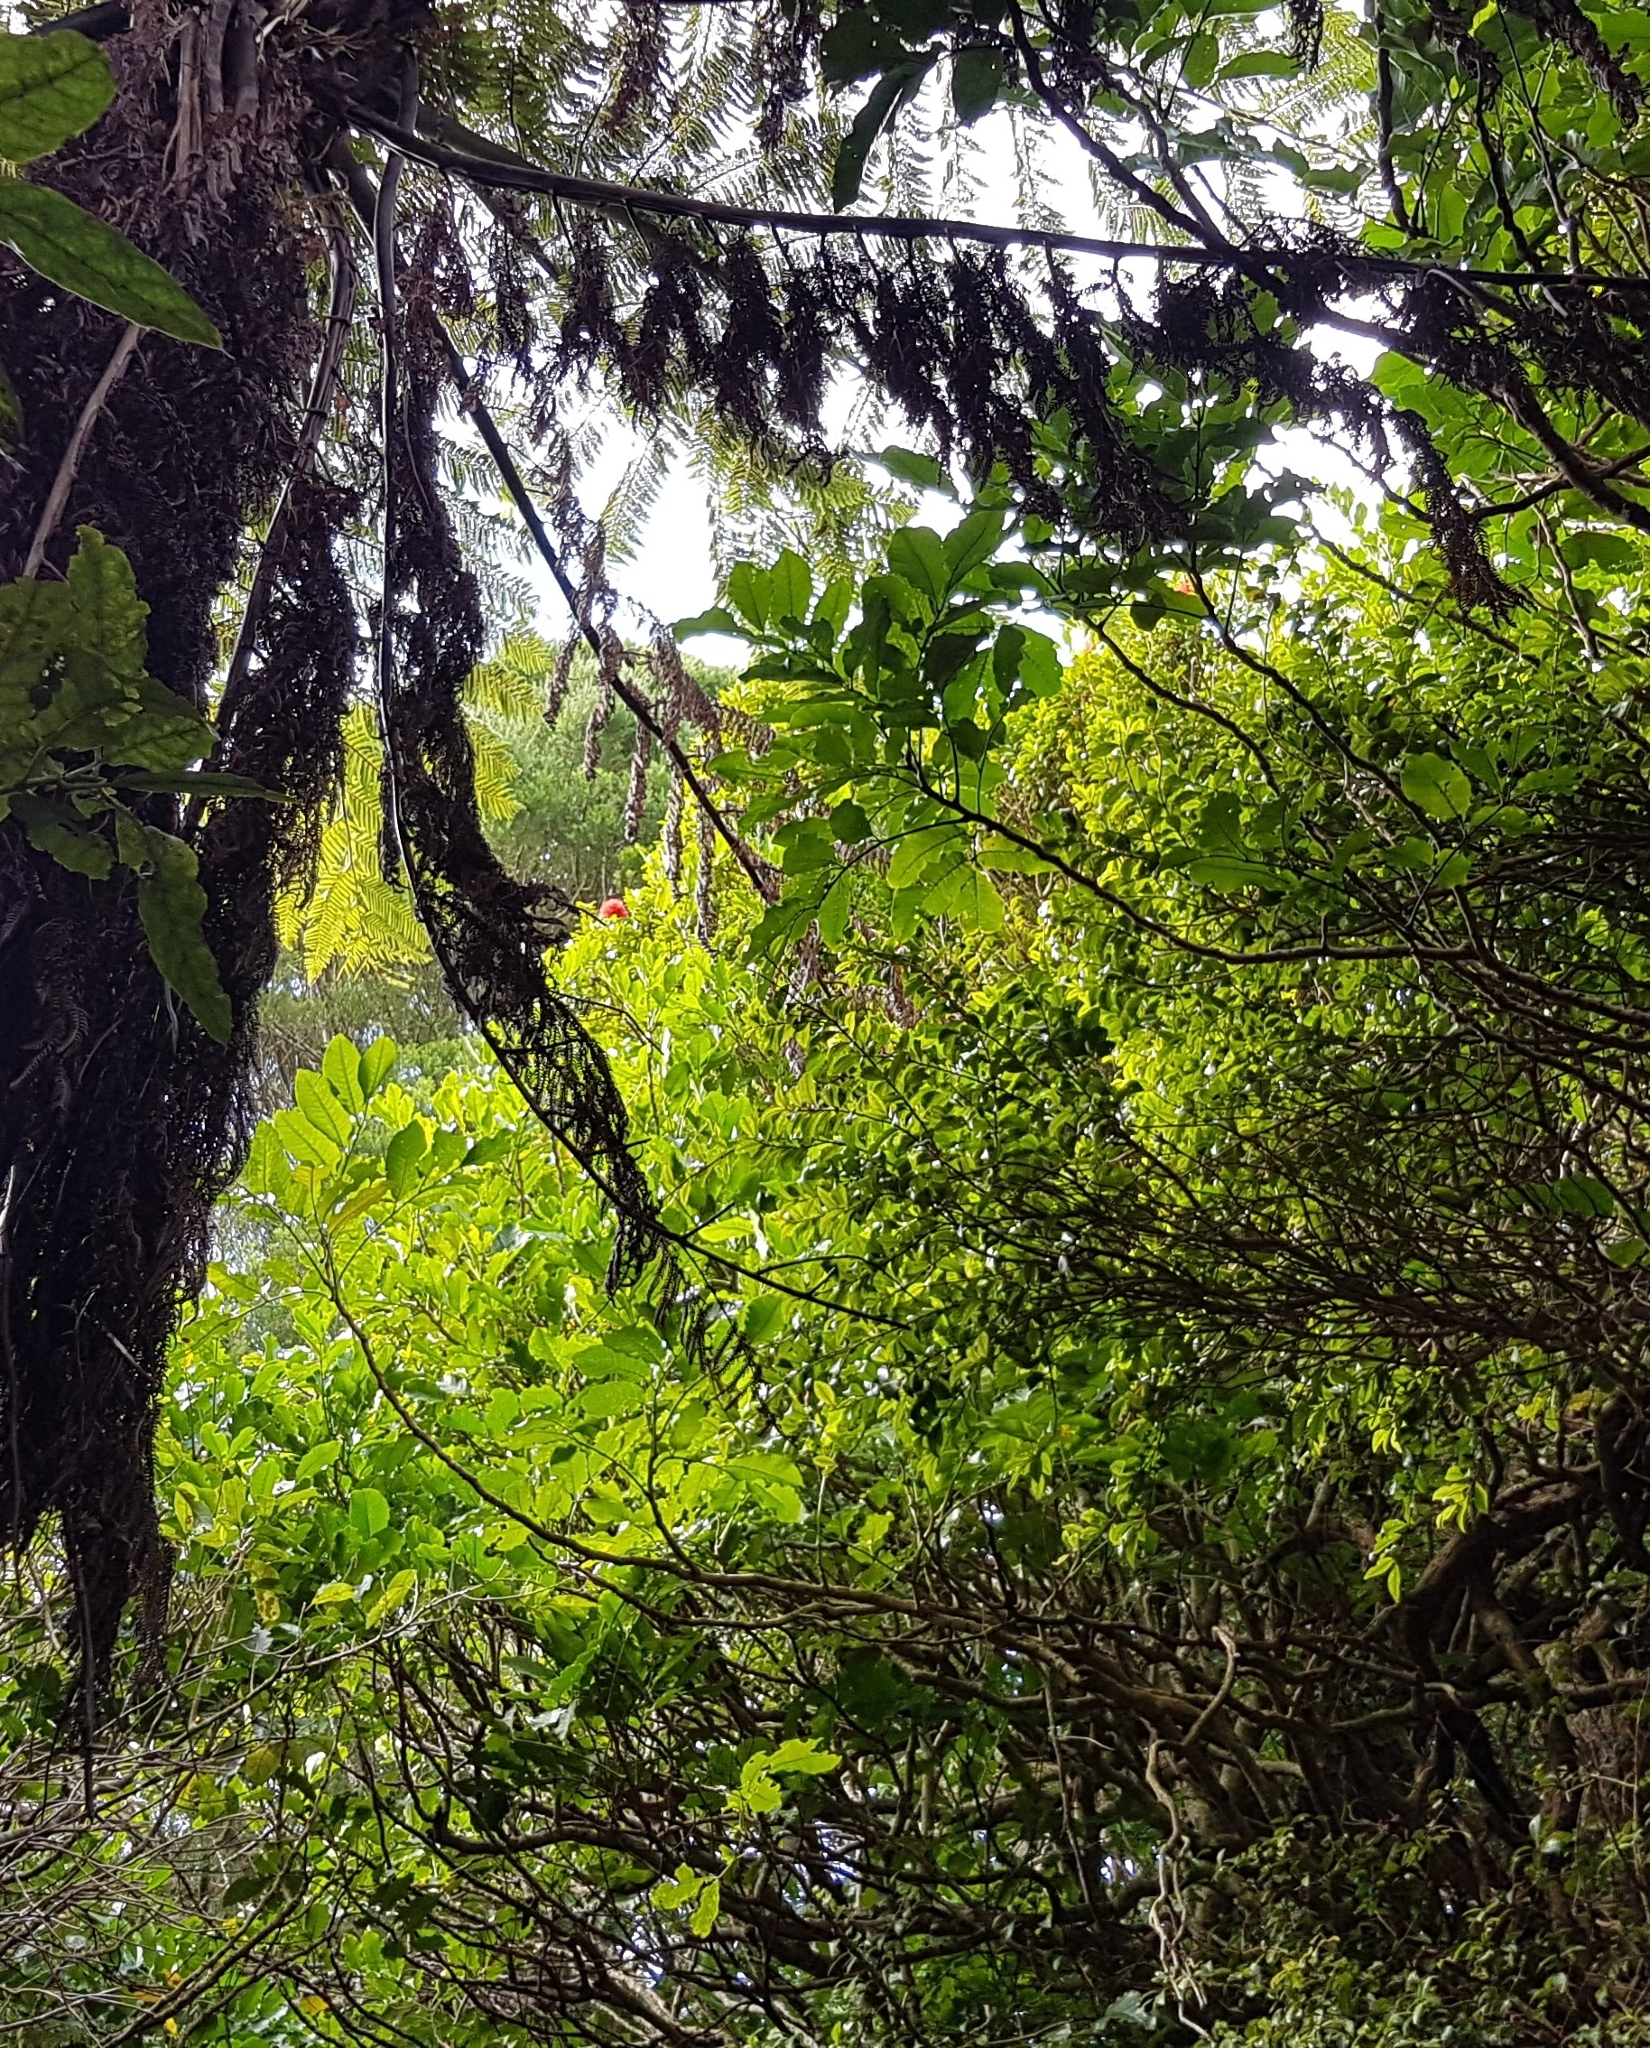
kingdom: Plantae
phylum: Tracheophyta
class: Magnoliopsida
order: Myrtales
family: Myrtaceae
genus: Metrosideros
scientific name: Metrosideros fulgens
